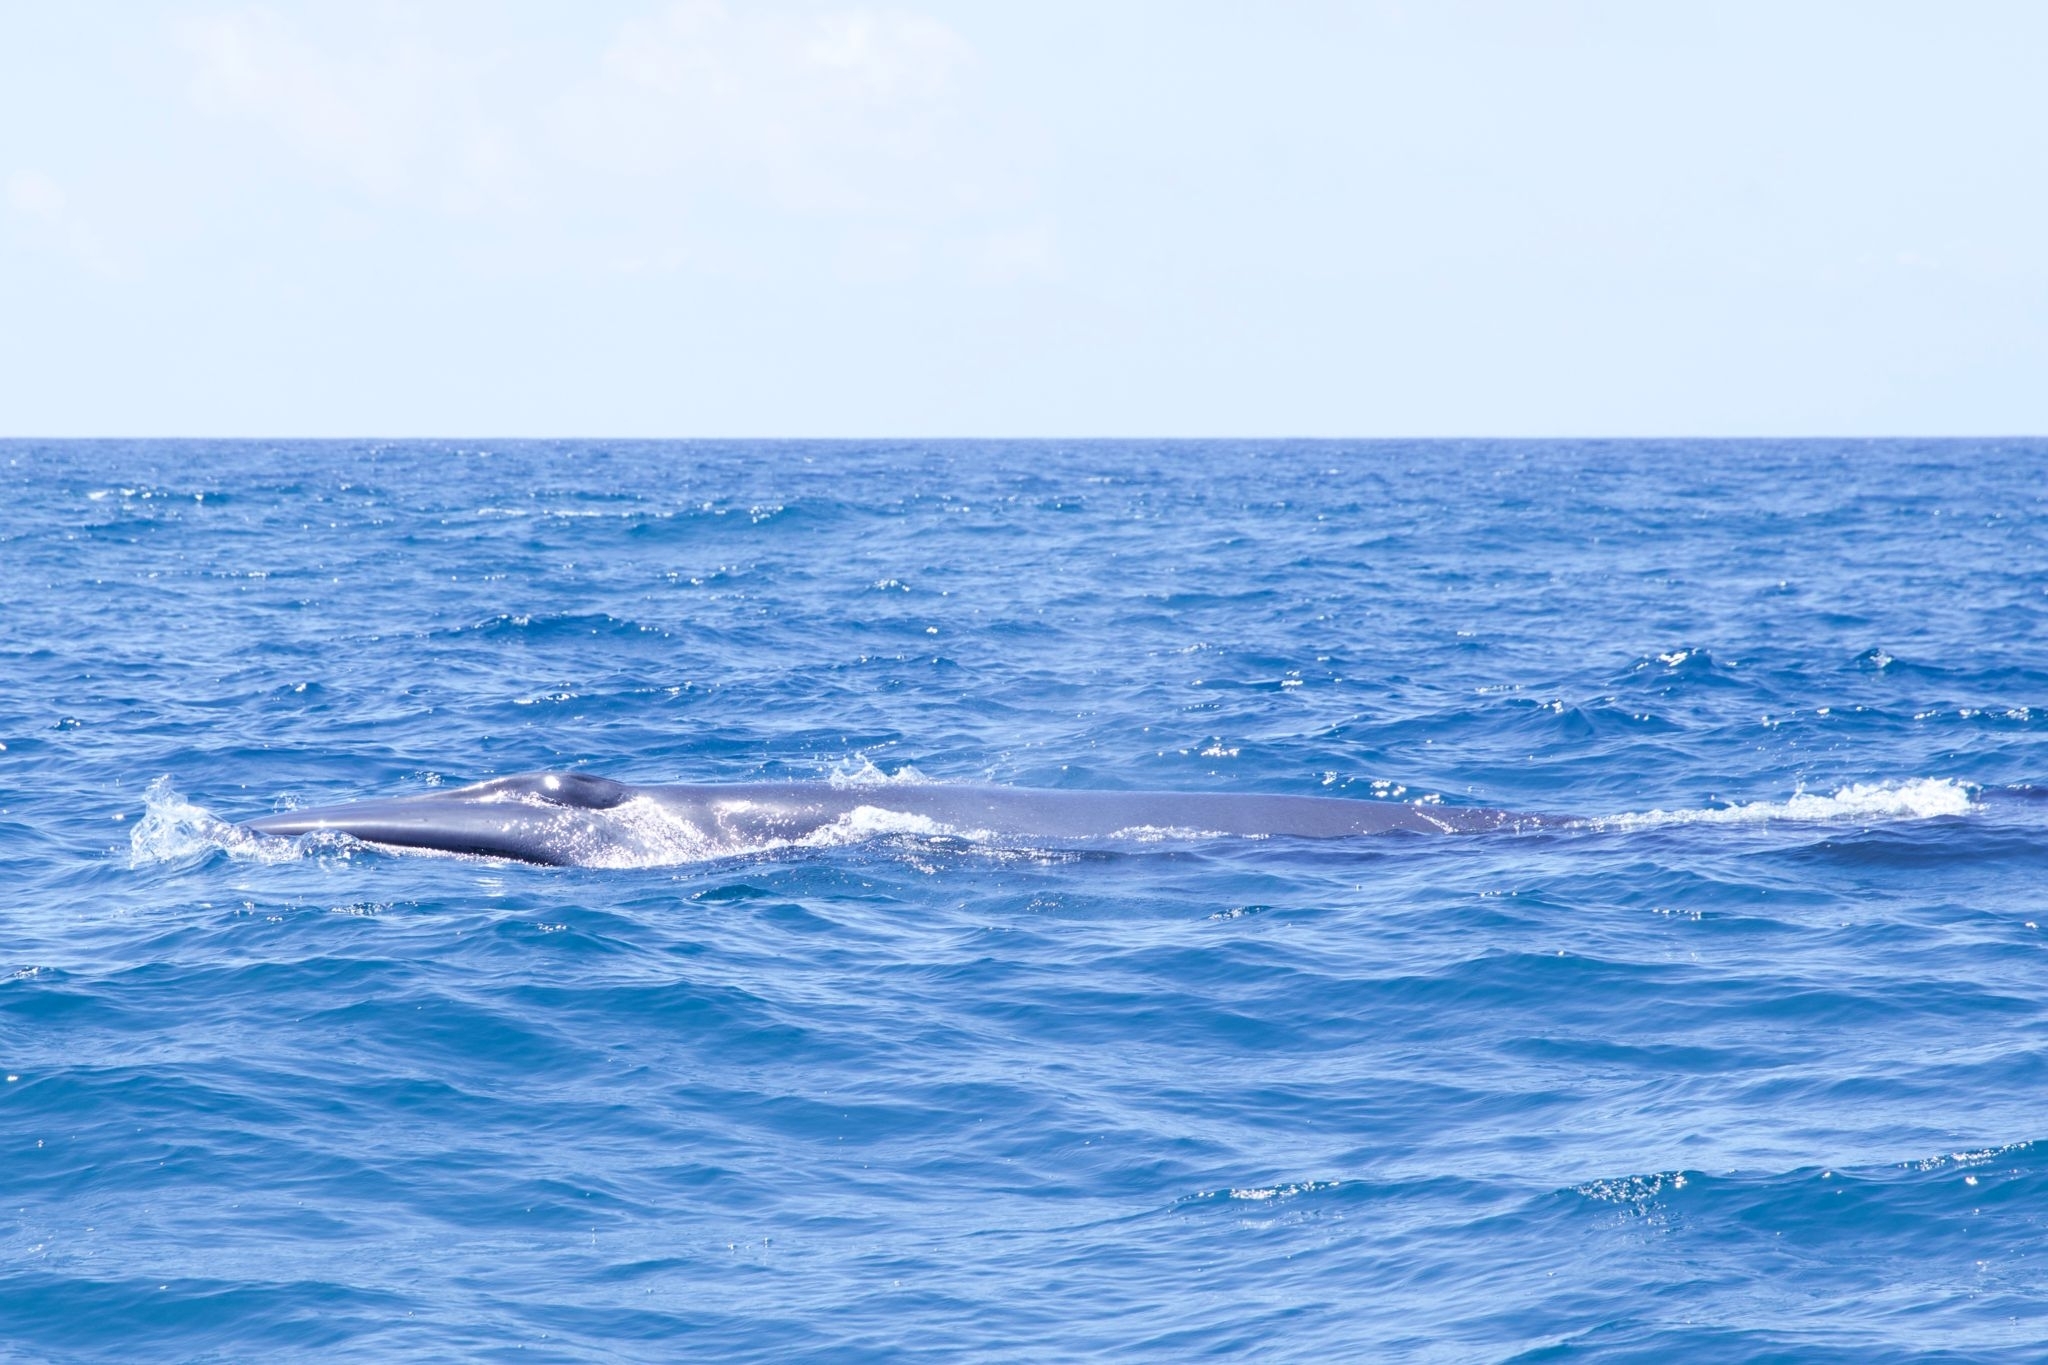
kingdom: Animalia
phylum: Chordata
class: Mammalia
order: Cetacea
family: Balaenopteridae
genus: Balaenoptera
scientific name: Balaenoptera borealis
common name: Sei whale
